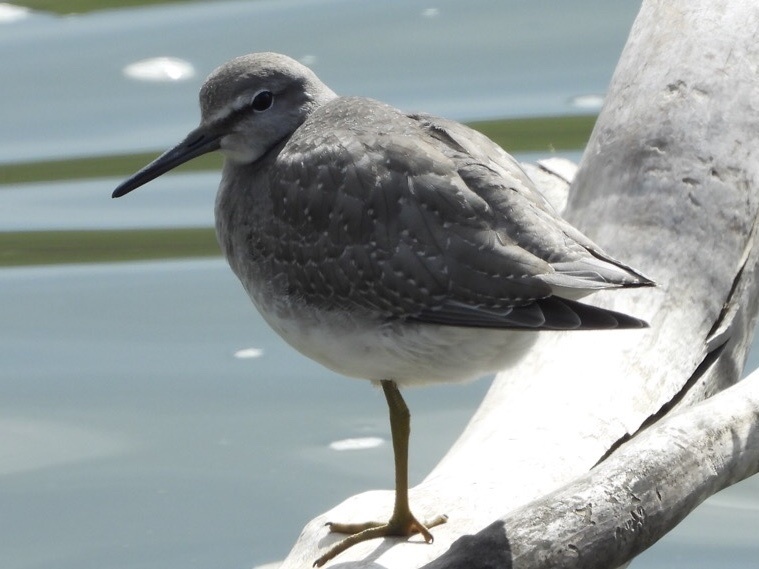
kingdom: Animalia
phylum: Chordata
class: Aves
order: Charadriiformes
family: Scolopacidae
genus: Tringa
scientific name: Tringa brevipes
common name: Grey-tailed tattler
